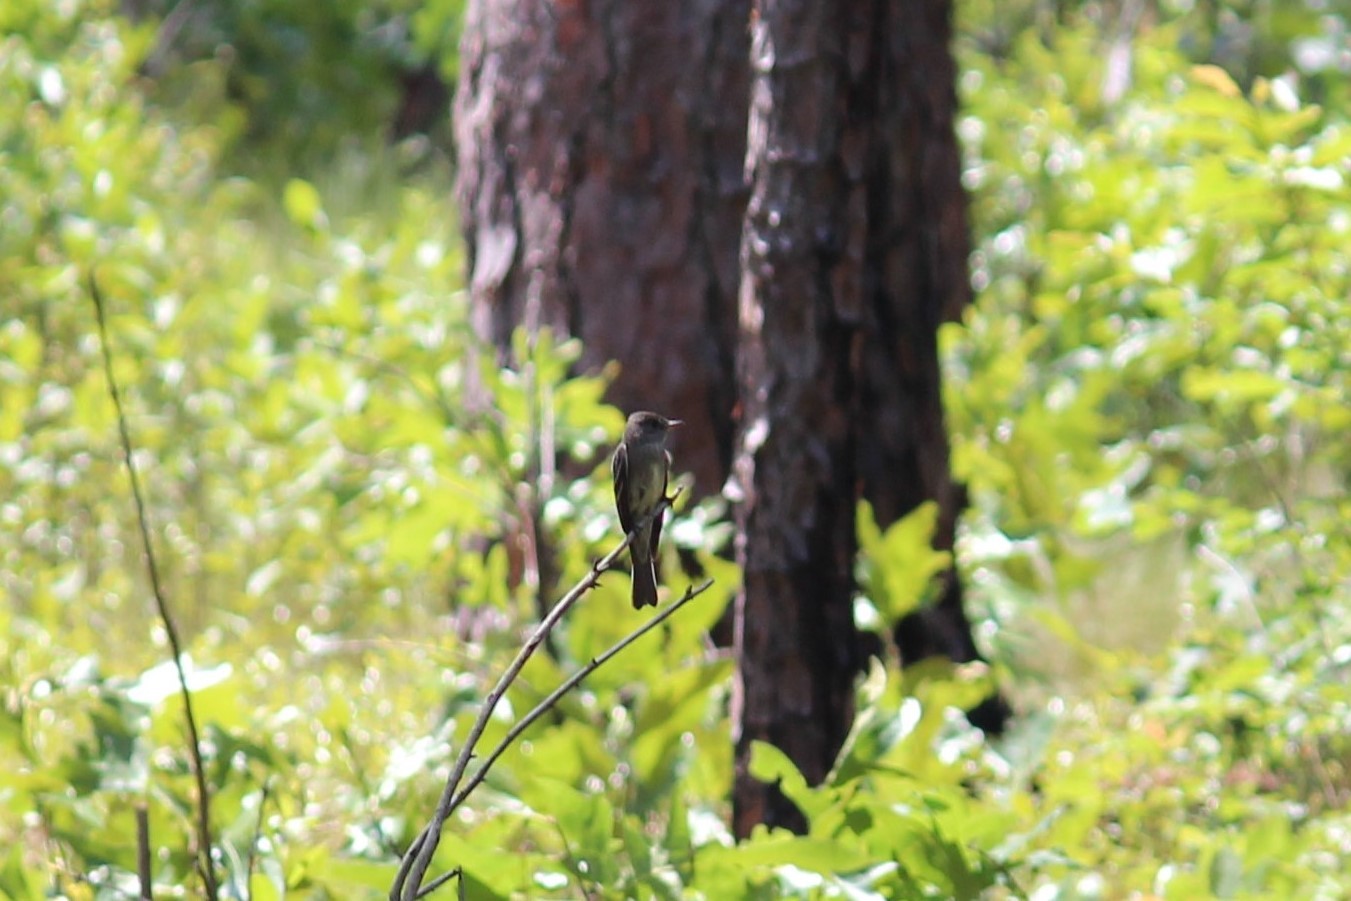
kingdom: Animalia
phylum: Chordata
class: Aves
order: Passeriformes
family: Tyrannidae
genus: Contopus
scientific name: Contopus virens
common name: Eastern wood-pewee
